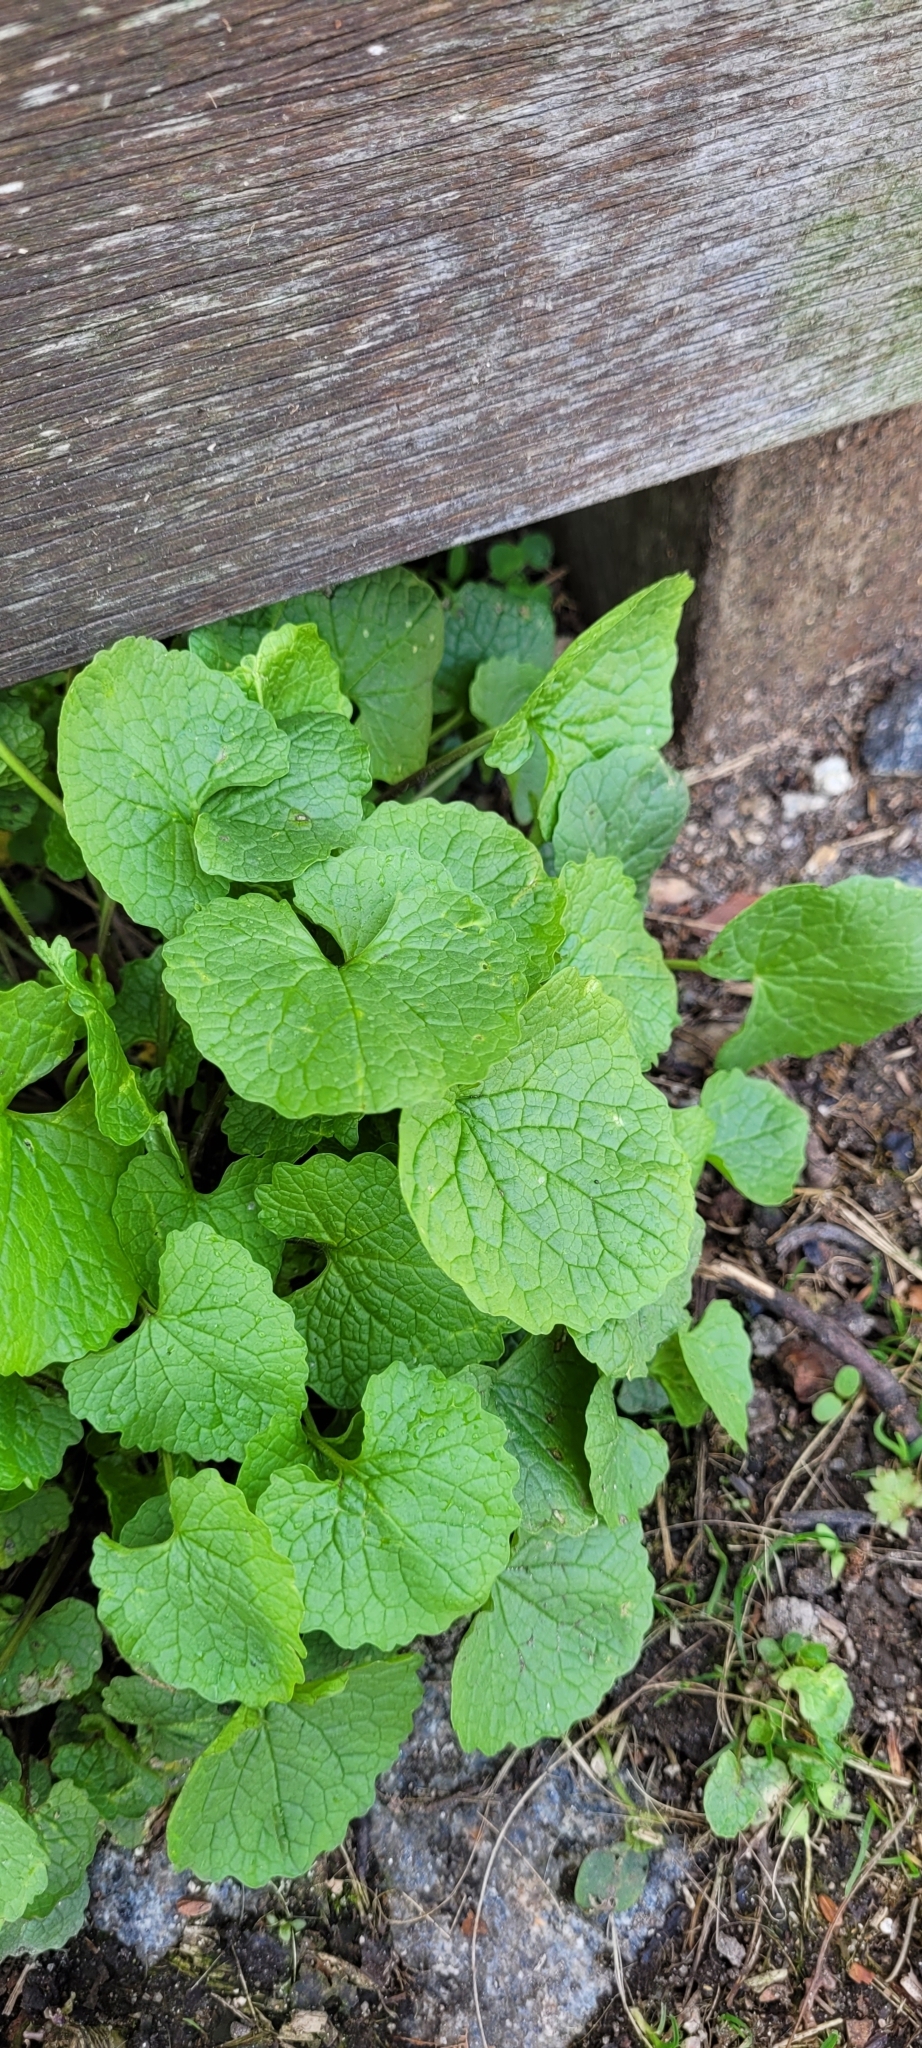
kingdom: Plantae
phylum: Tracheophyta
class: Magnoliopsida
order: Brassicales
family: Brassicaceae
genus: Alliaria
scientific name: Alliaria petiolata
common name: Garlic mustard
